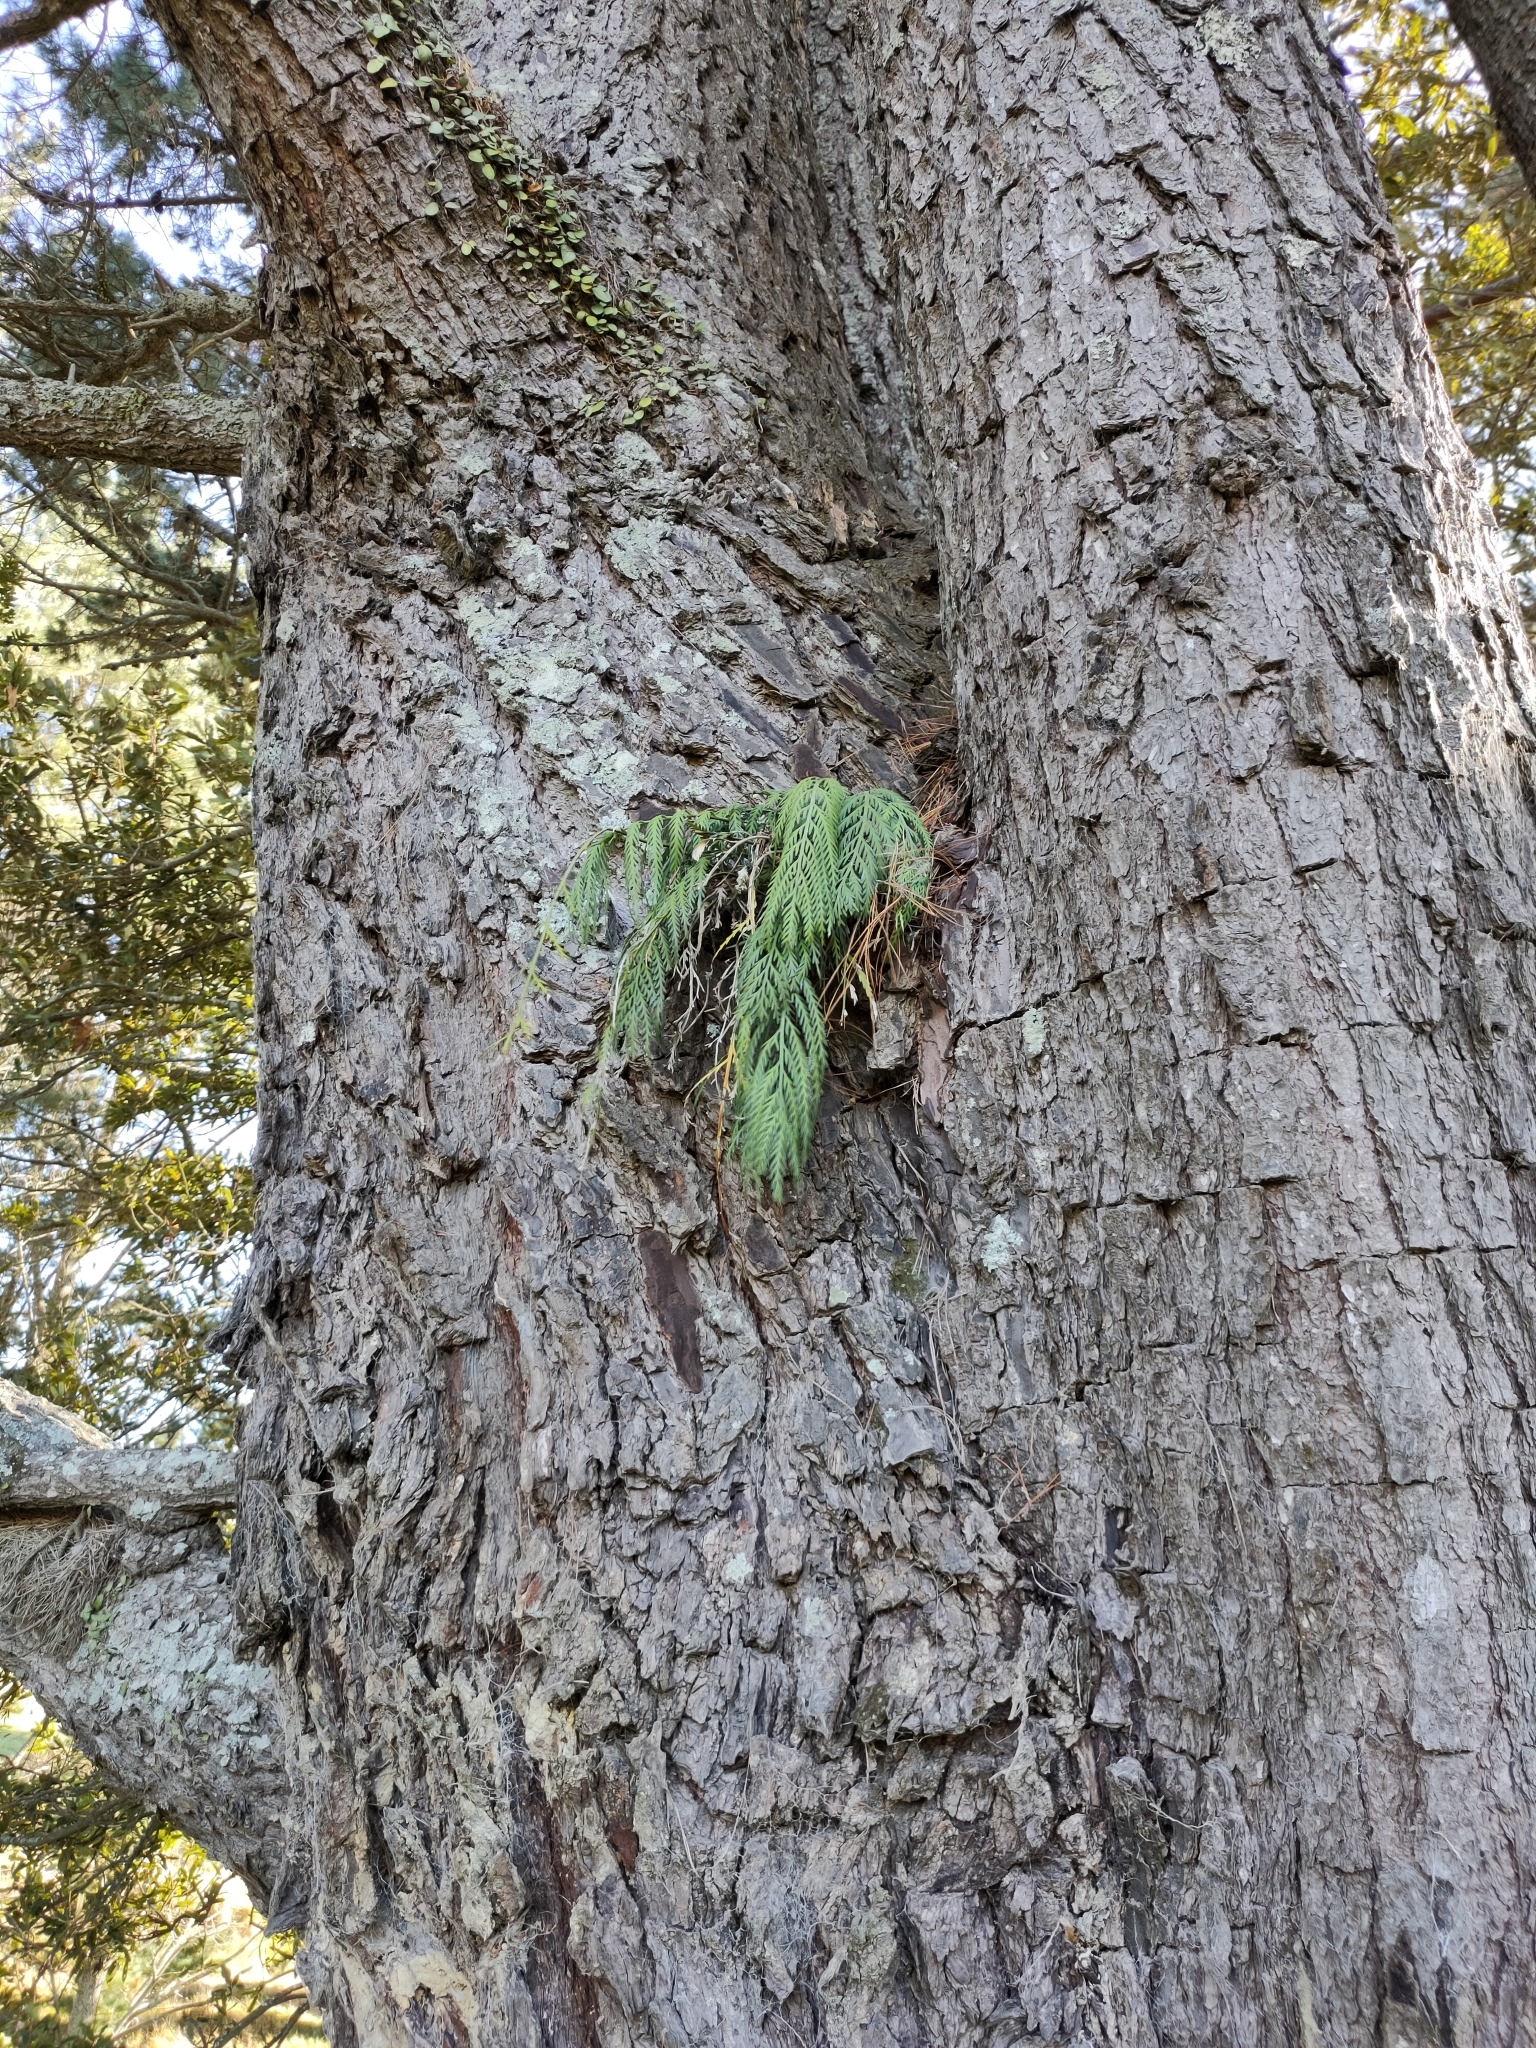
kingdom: Plantae
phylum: Tracheophyta
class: Polypodiopsida
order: Polypodiales
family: Aspleniaceae
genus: Asplenium
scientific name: Asplenium flaccidum
